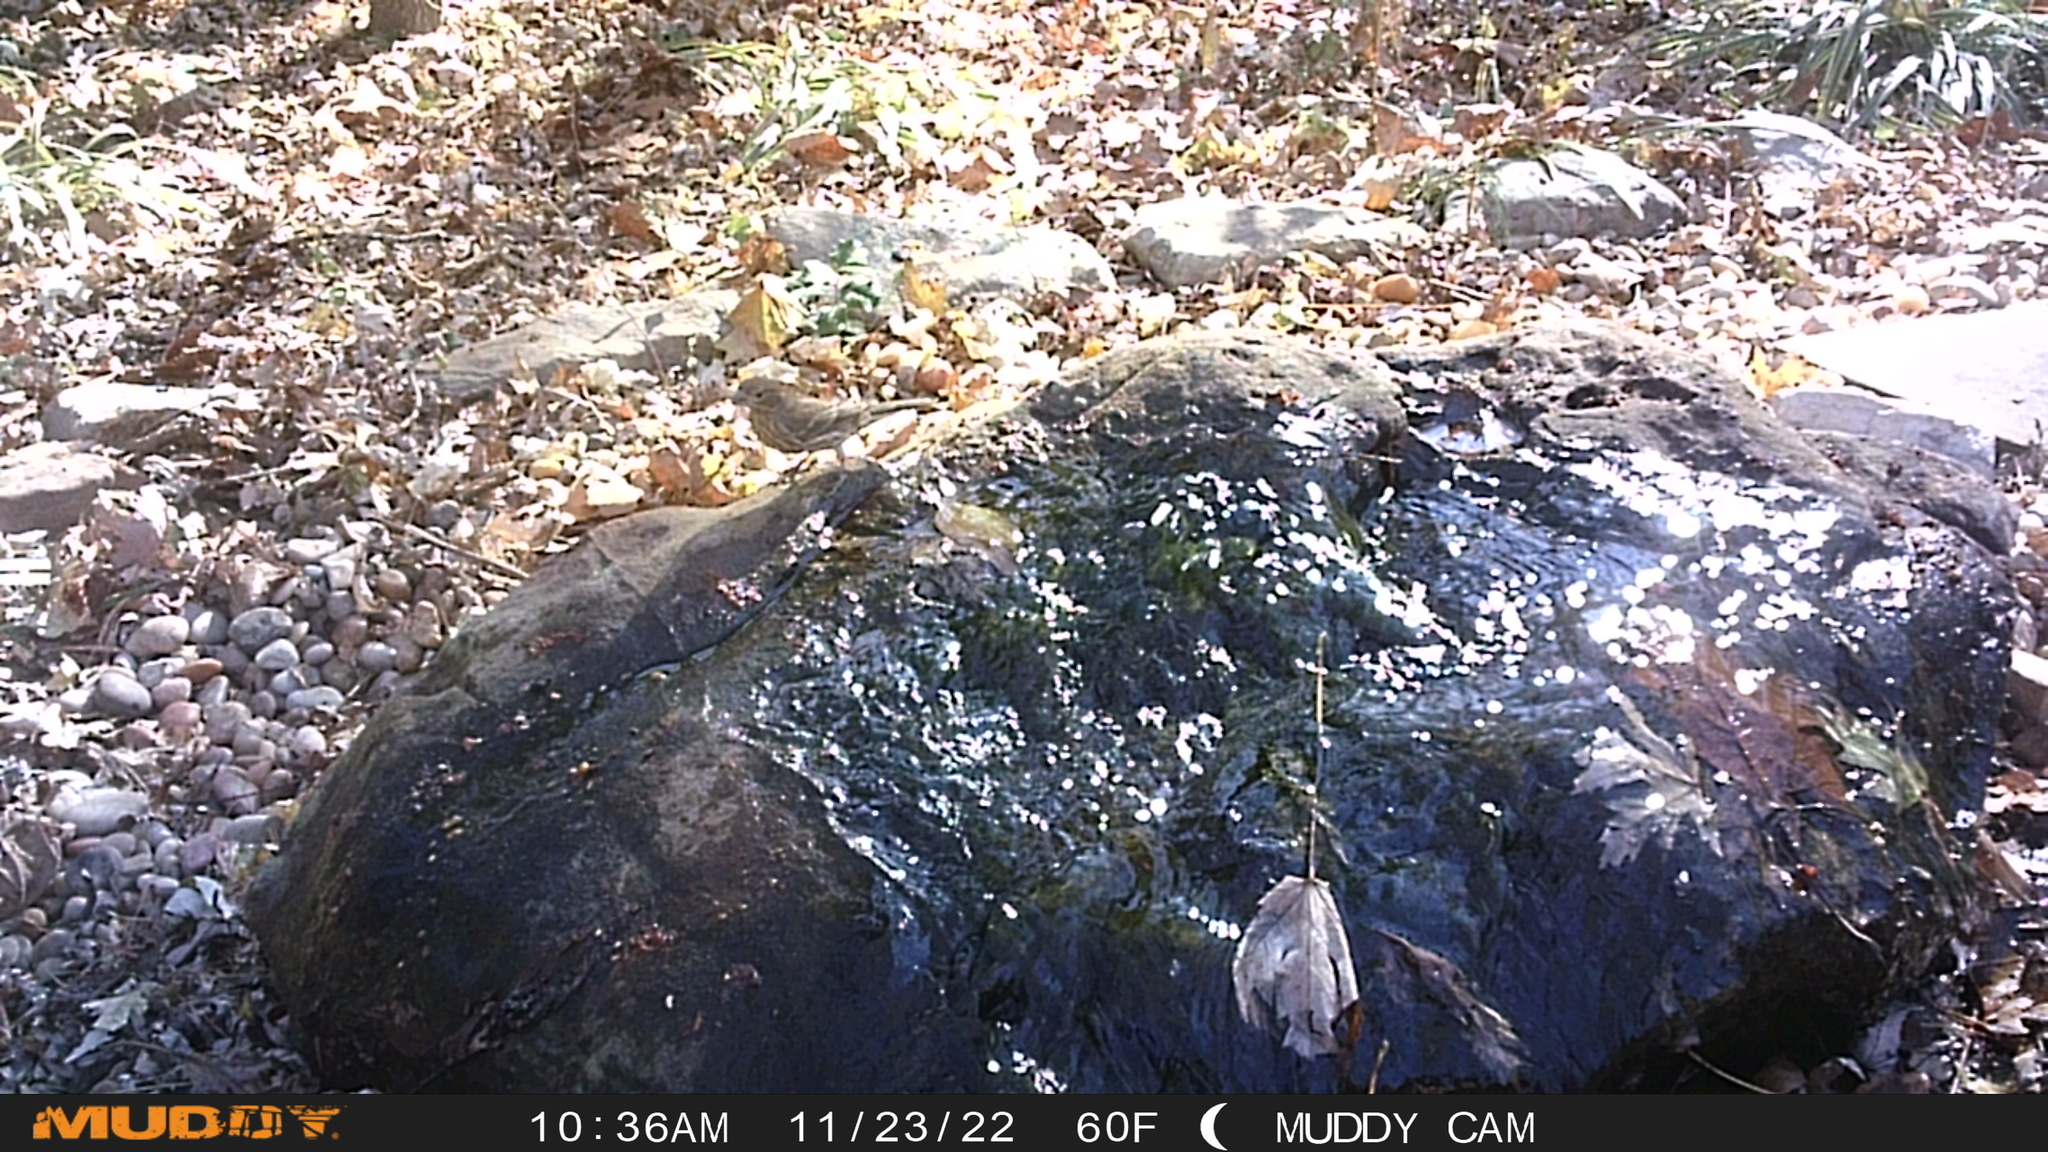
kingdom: Animalia
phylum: Chordata
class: Aves
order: Passeriformes
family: Fringillidae
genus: Haemorhous
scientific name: Haemorhous mexicanus
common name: House finch
